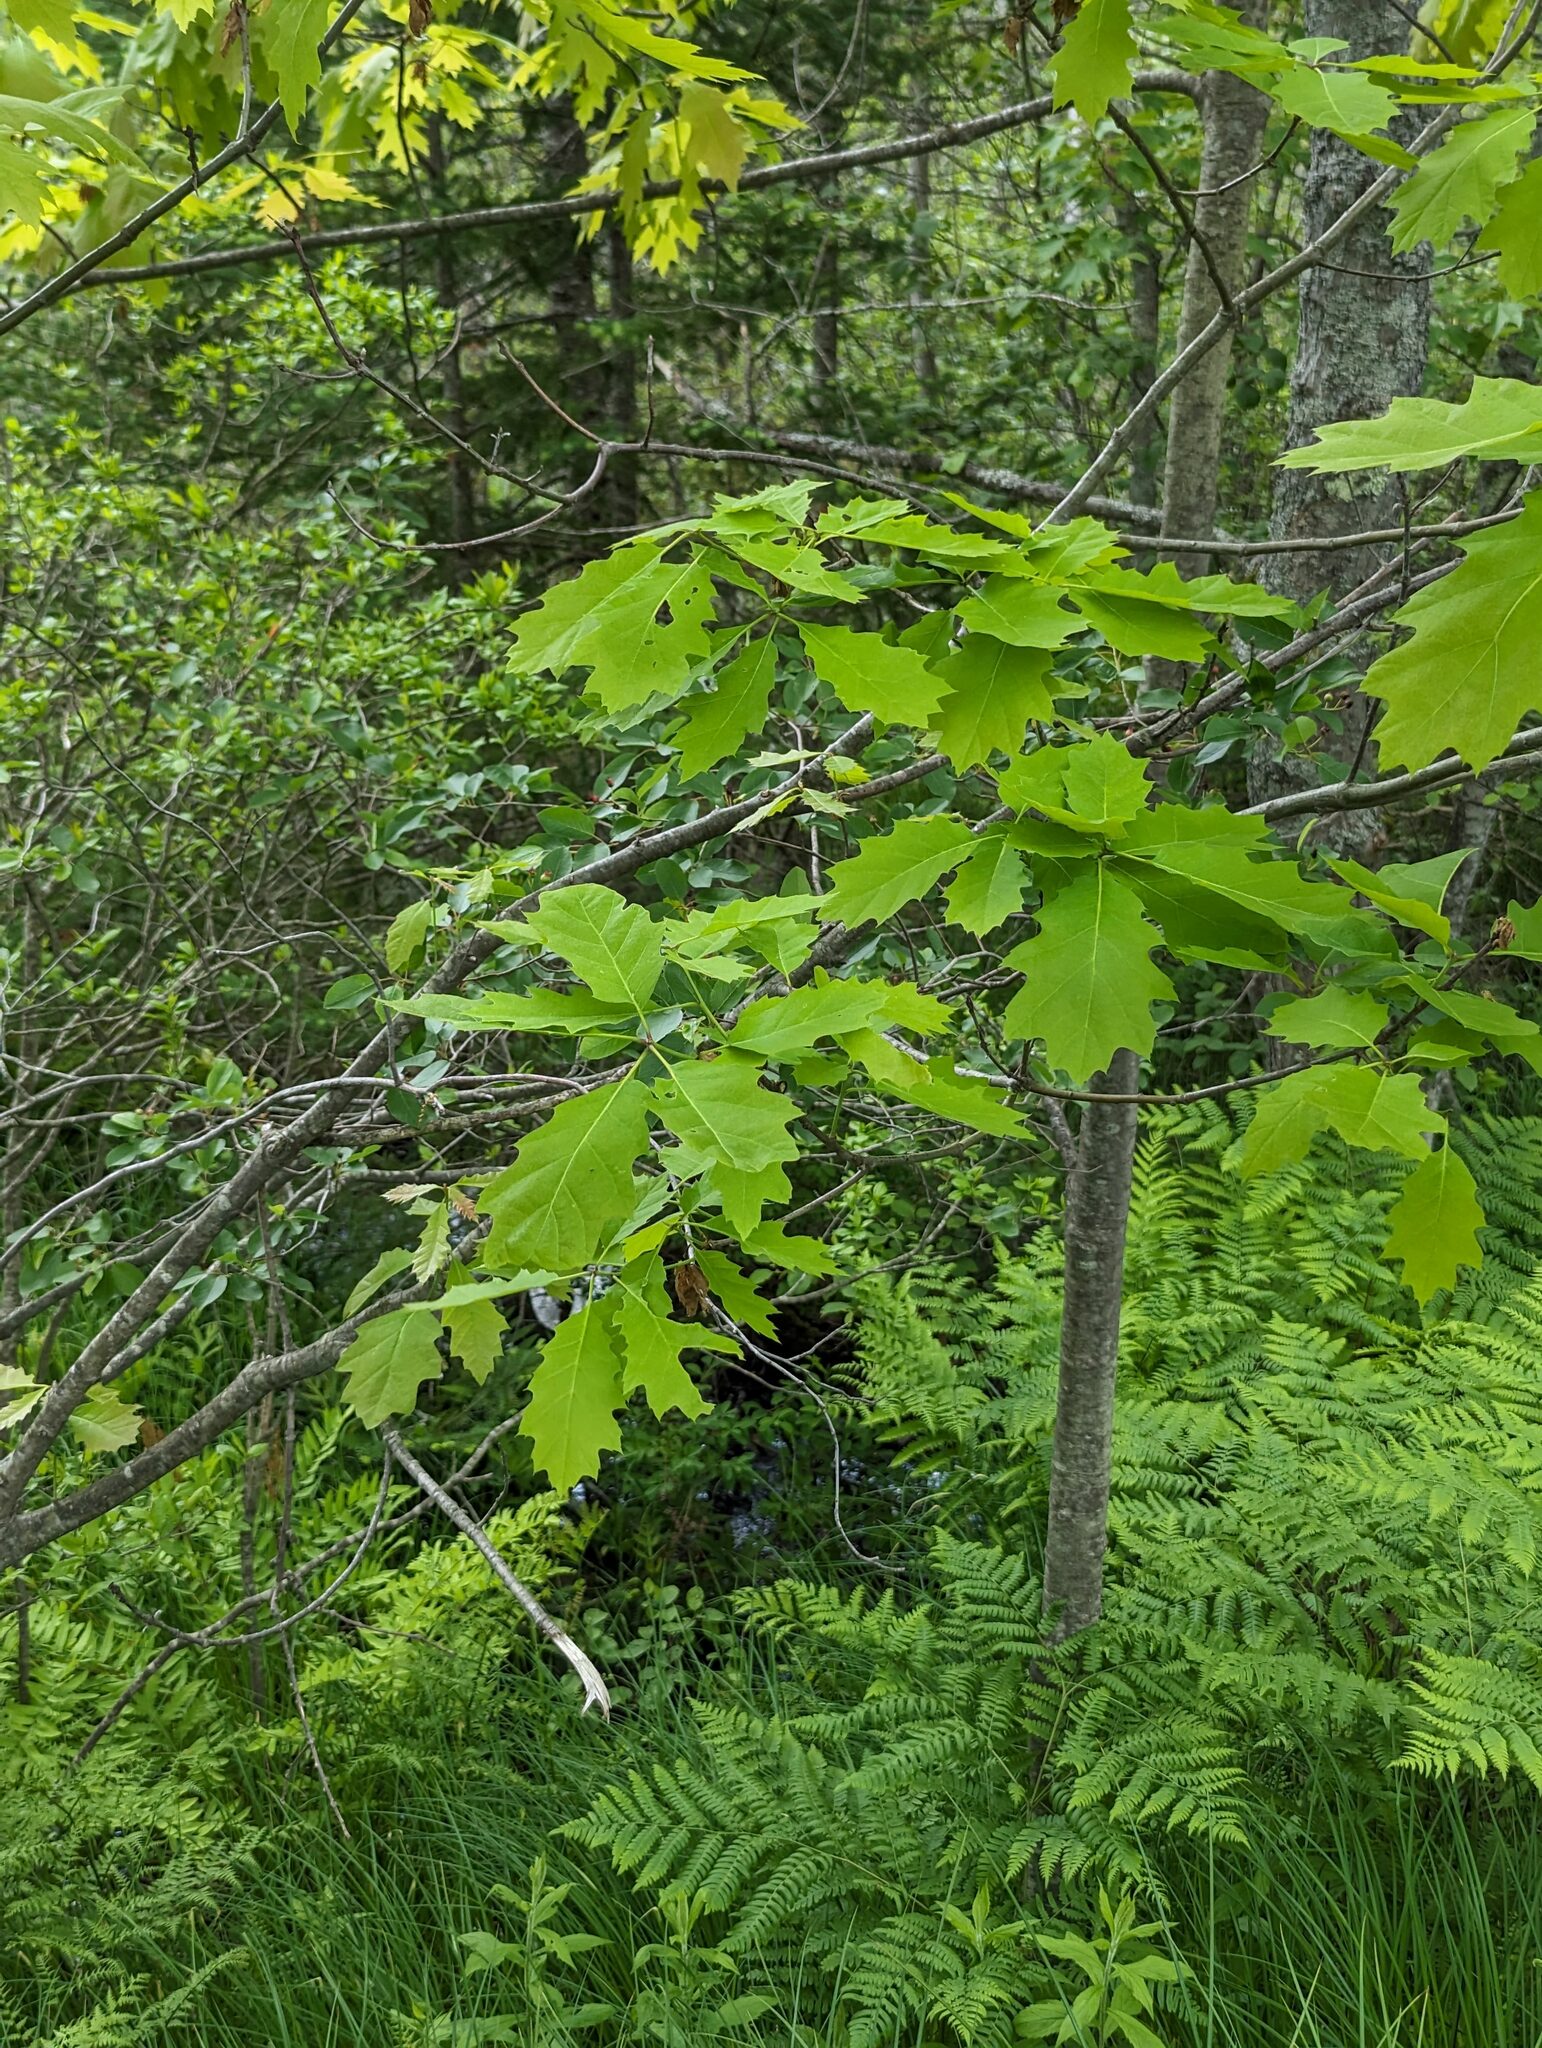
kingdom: Plantae
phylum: Tracheophyta
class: Magnoliopsida
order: Fagales
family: Fagaceae
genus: Quercus
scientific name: Quercus rubra
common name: Red oak
